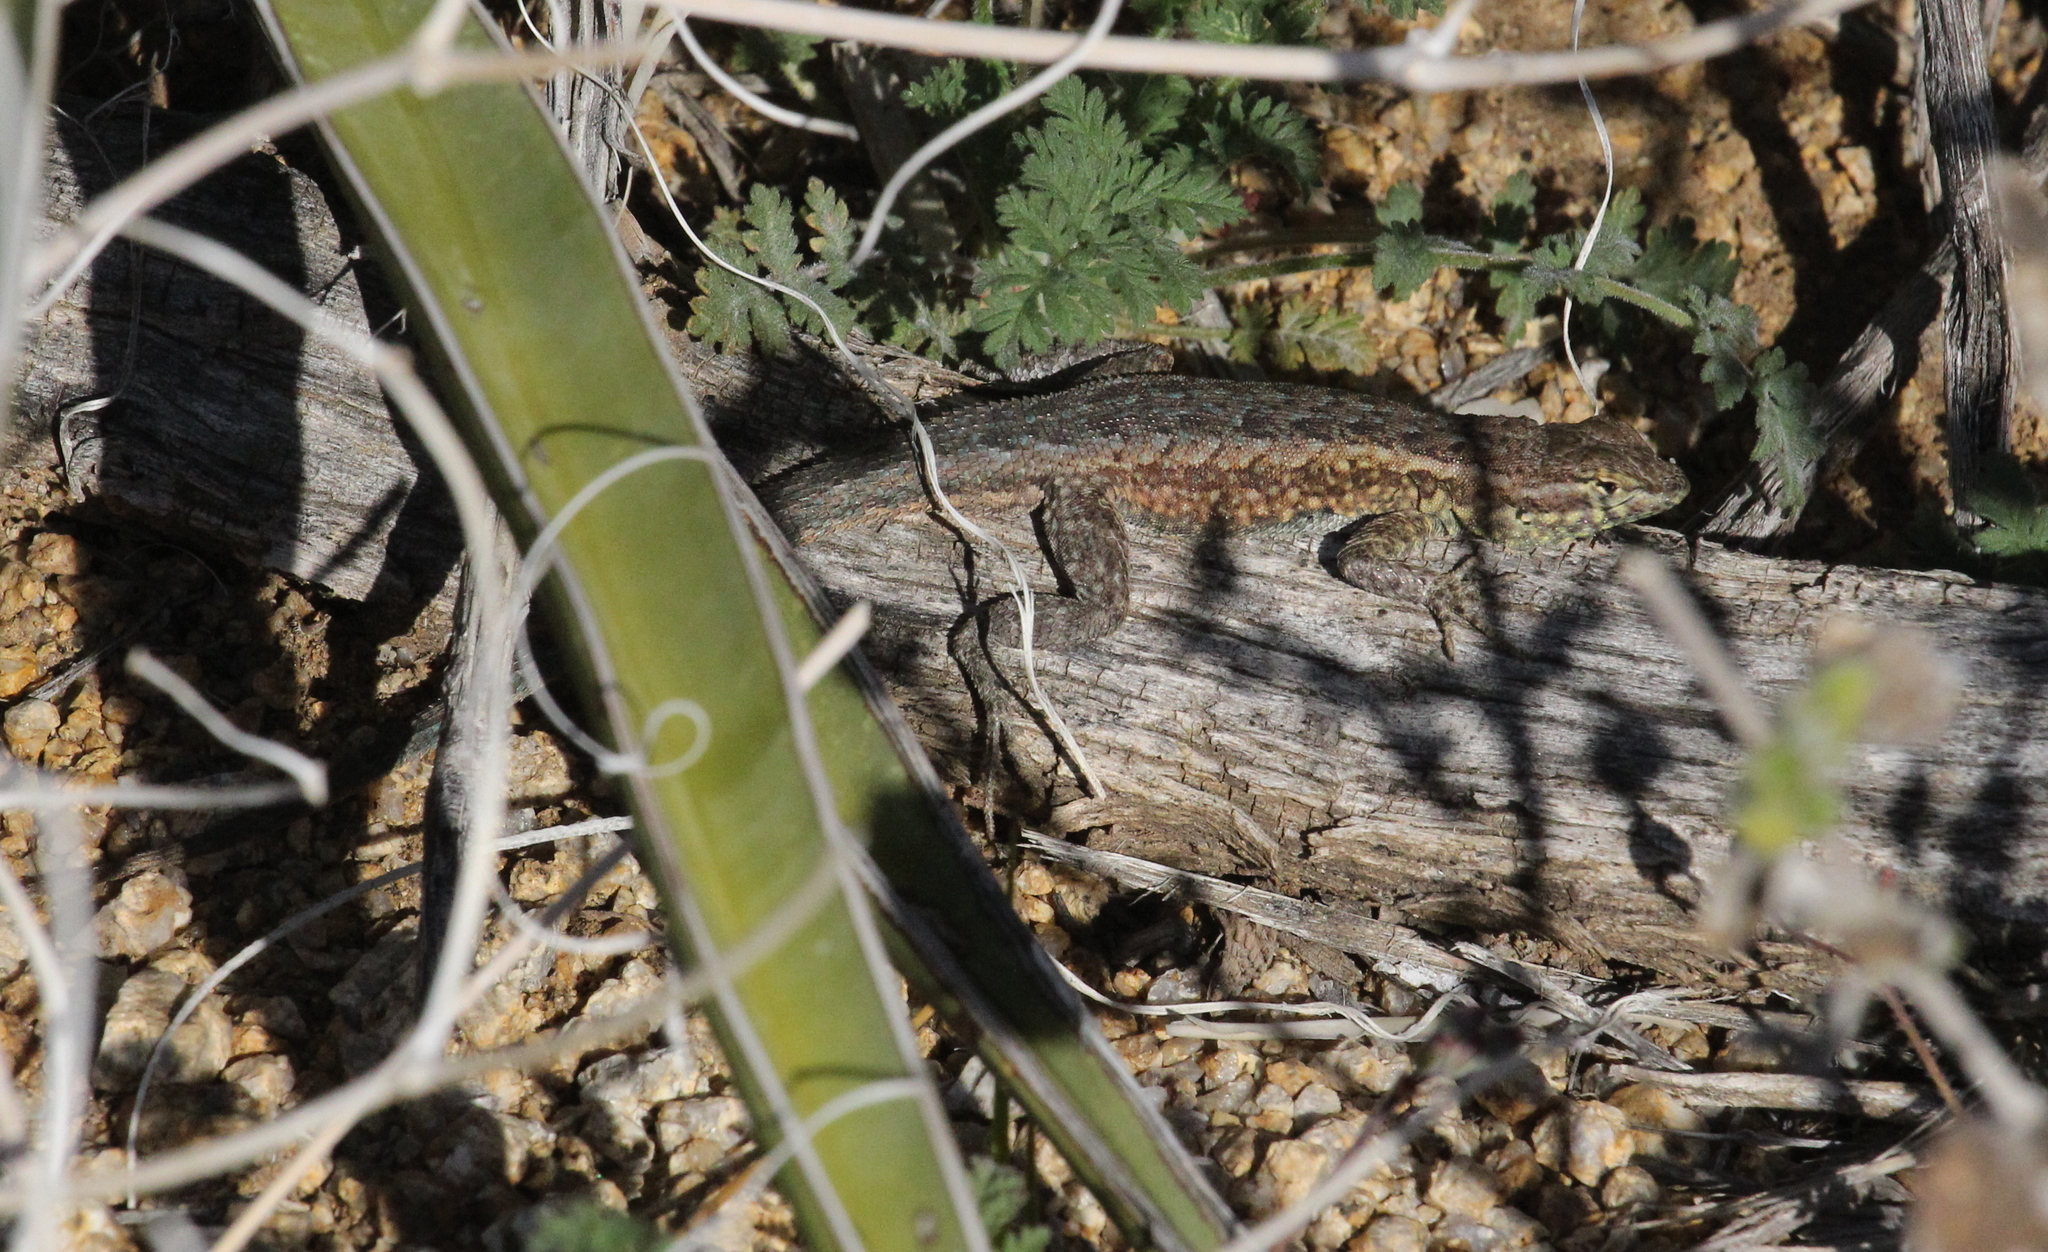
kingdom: Animalia
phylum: Chordata
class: Squamata
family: Phrynosomatidae
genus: Uta
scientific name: Uta stansburiana
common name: Side-blotched lizard
